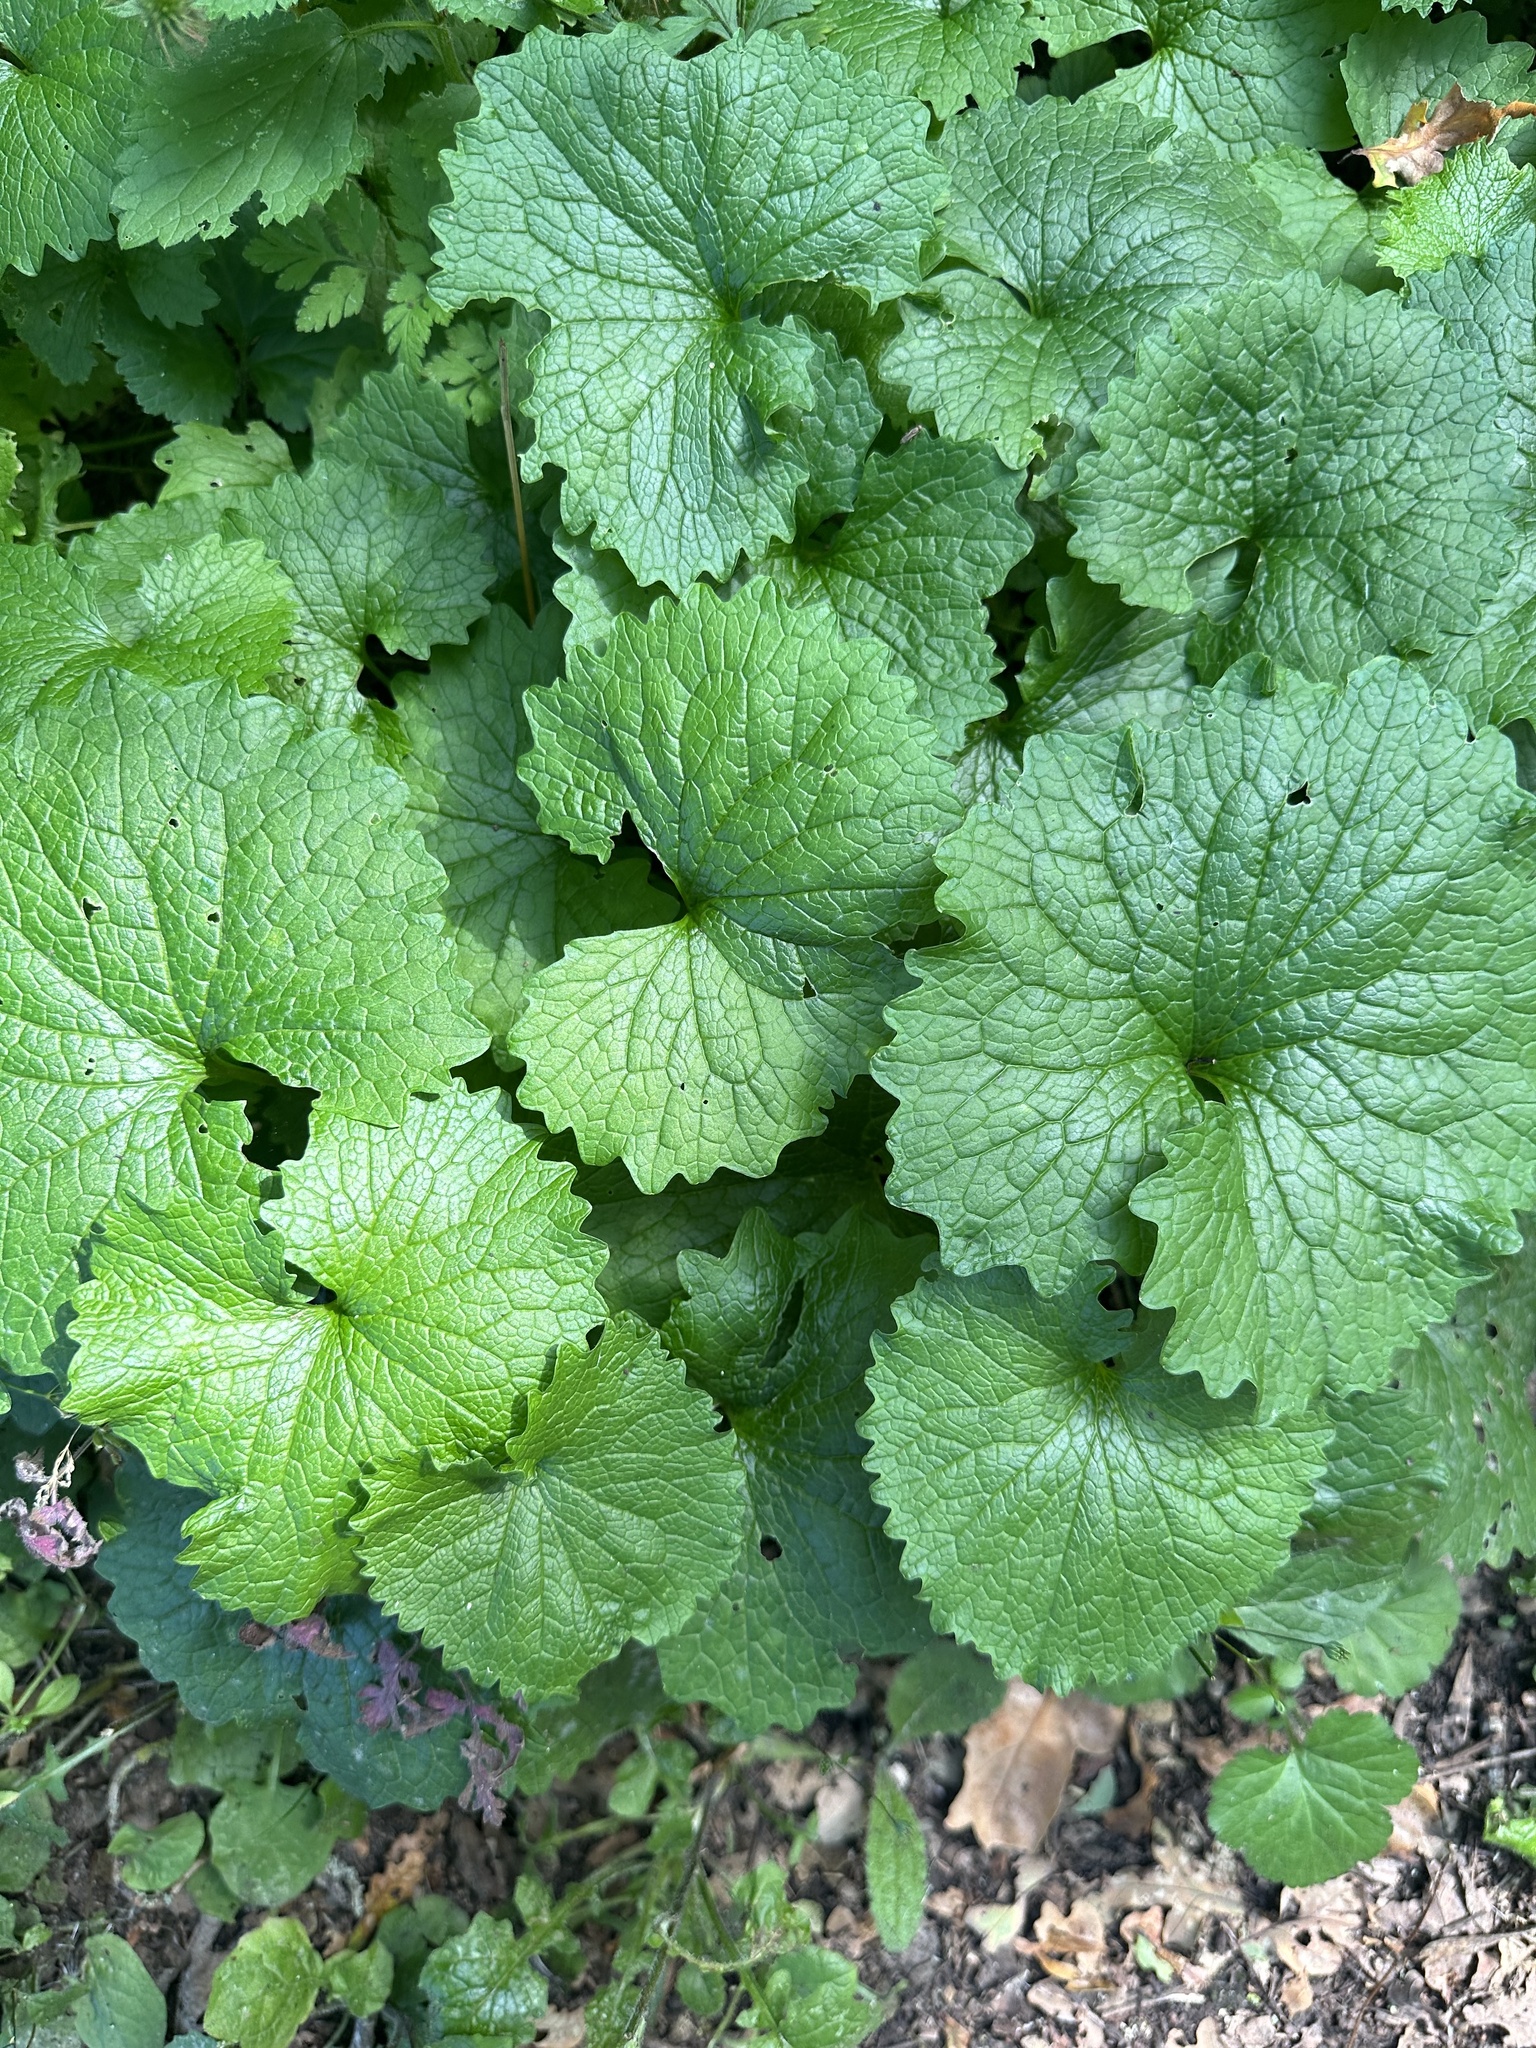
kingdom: Plantae
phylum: Tracheophyta
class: Magnoliopsida
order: Brassicales
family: Brassicaceae
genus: Alliaria
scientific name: Alliaria petiolata
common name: Garlic mustard
